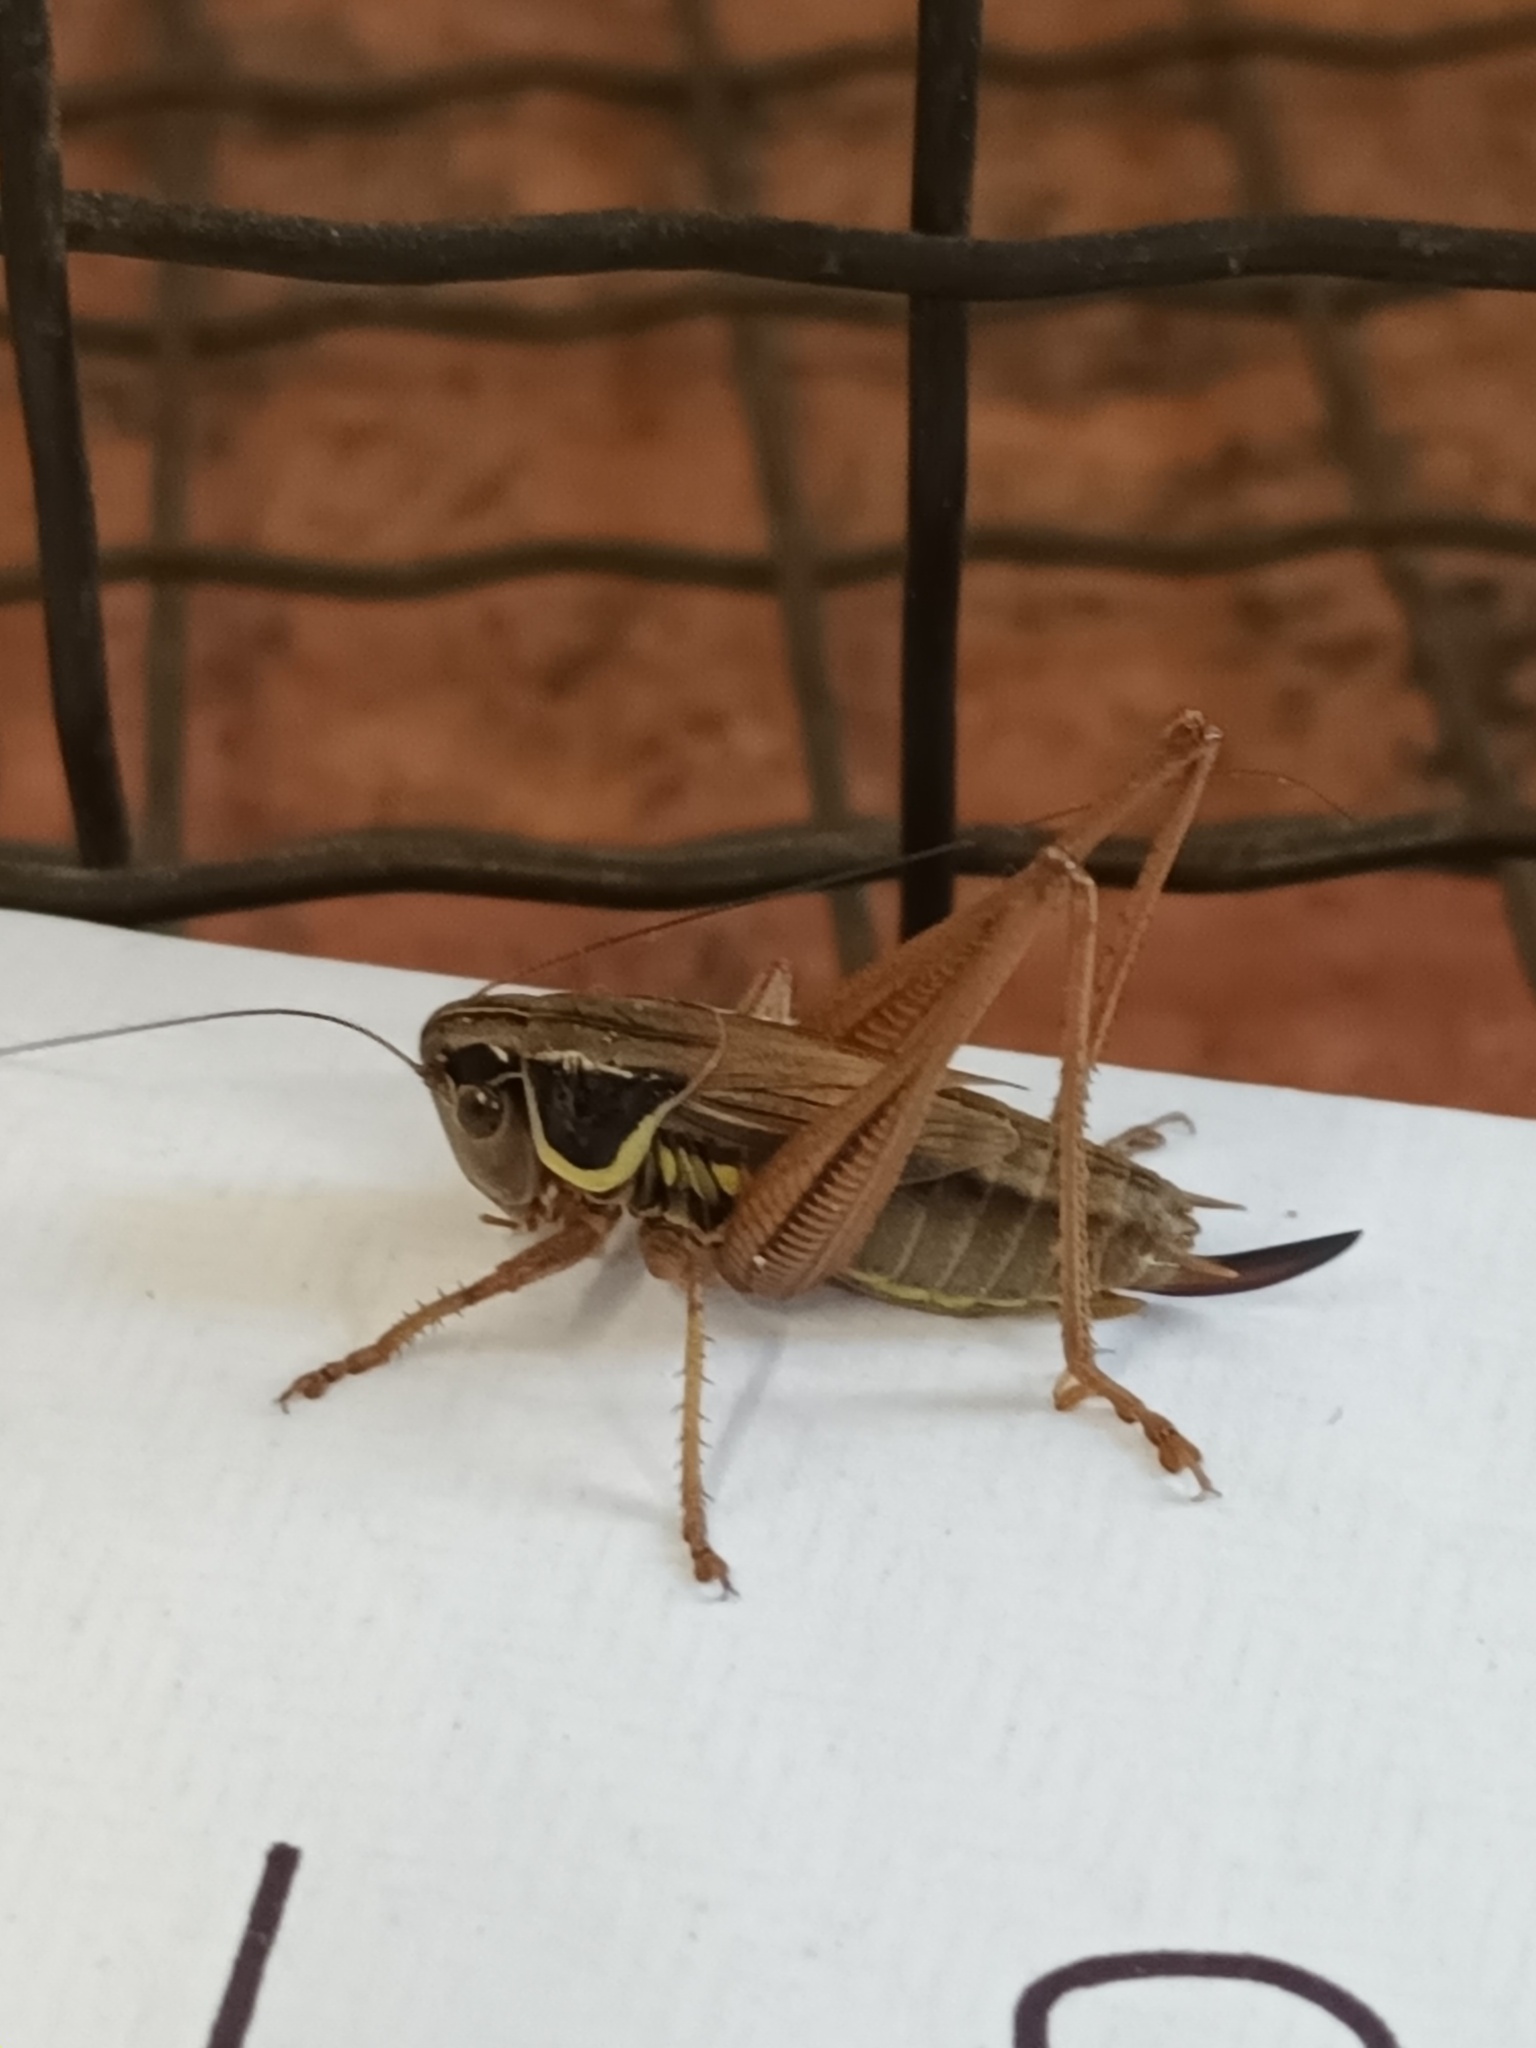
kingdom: Animalia
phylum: Arthropoda
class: Insecta
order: Orthoptera
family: Tettigoniidae
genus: Roeseliana
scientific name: Roeseliana roeselii
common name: Roesel's bush cricket
